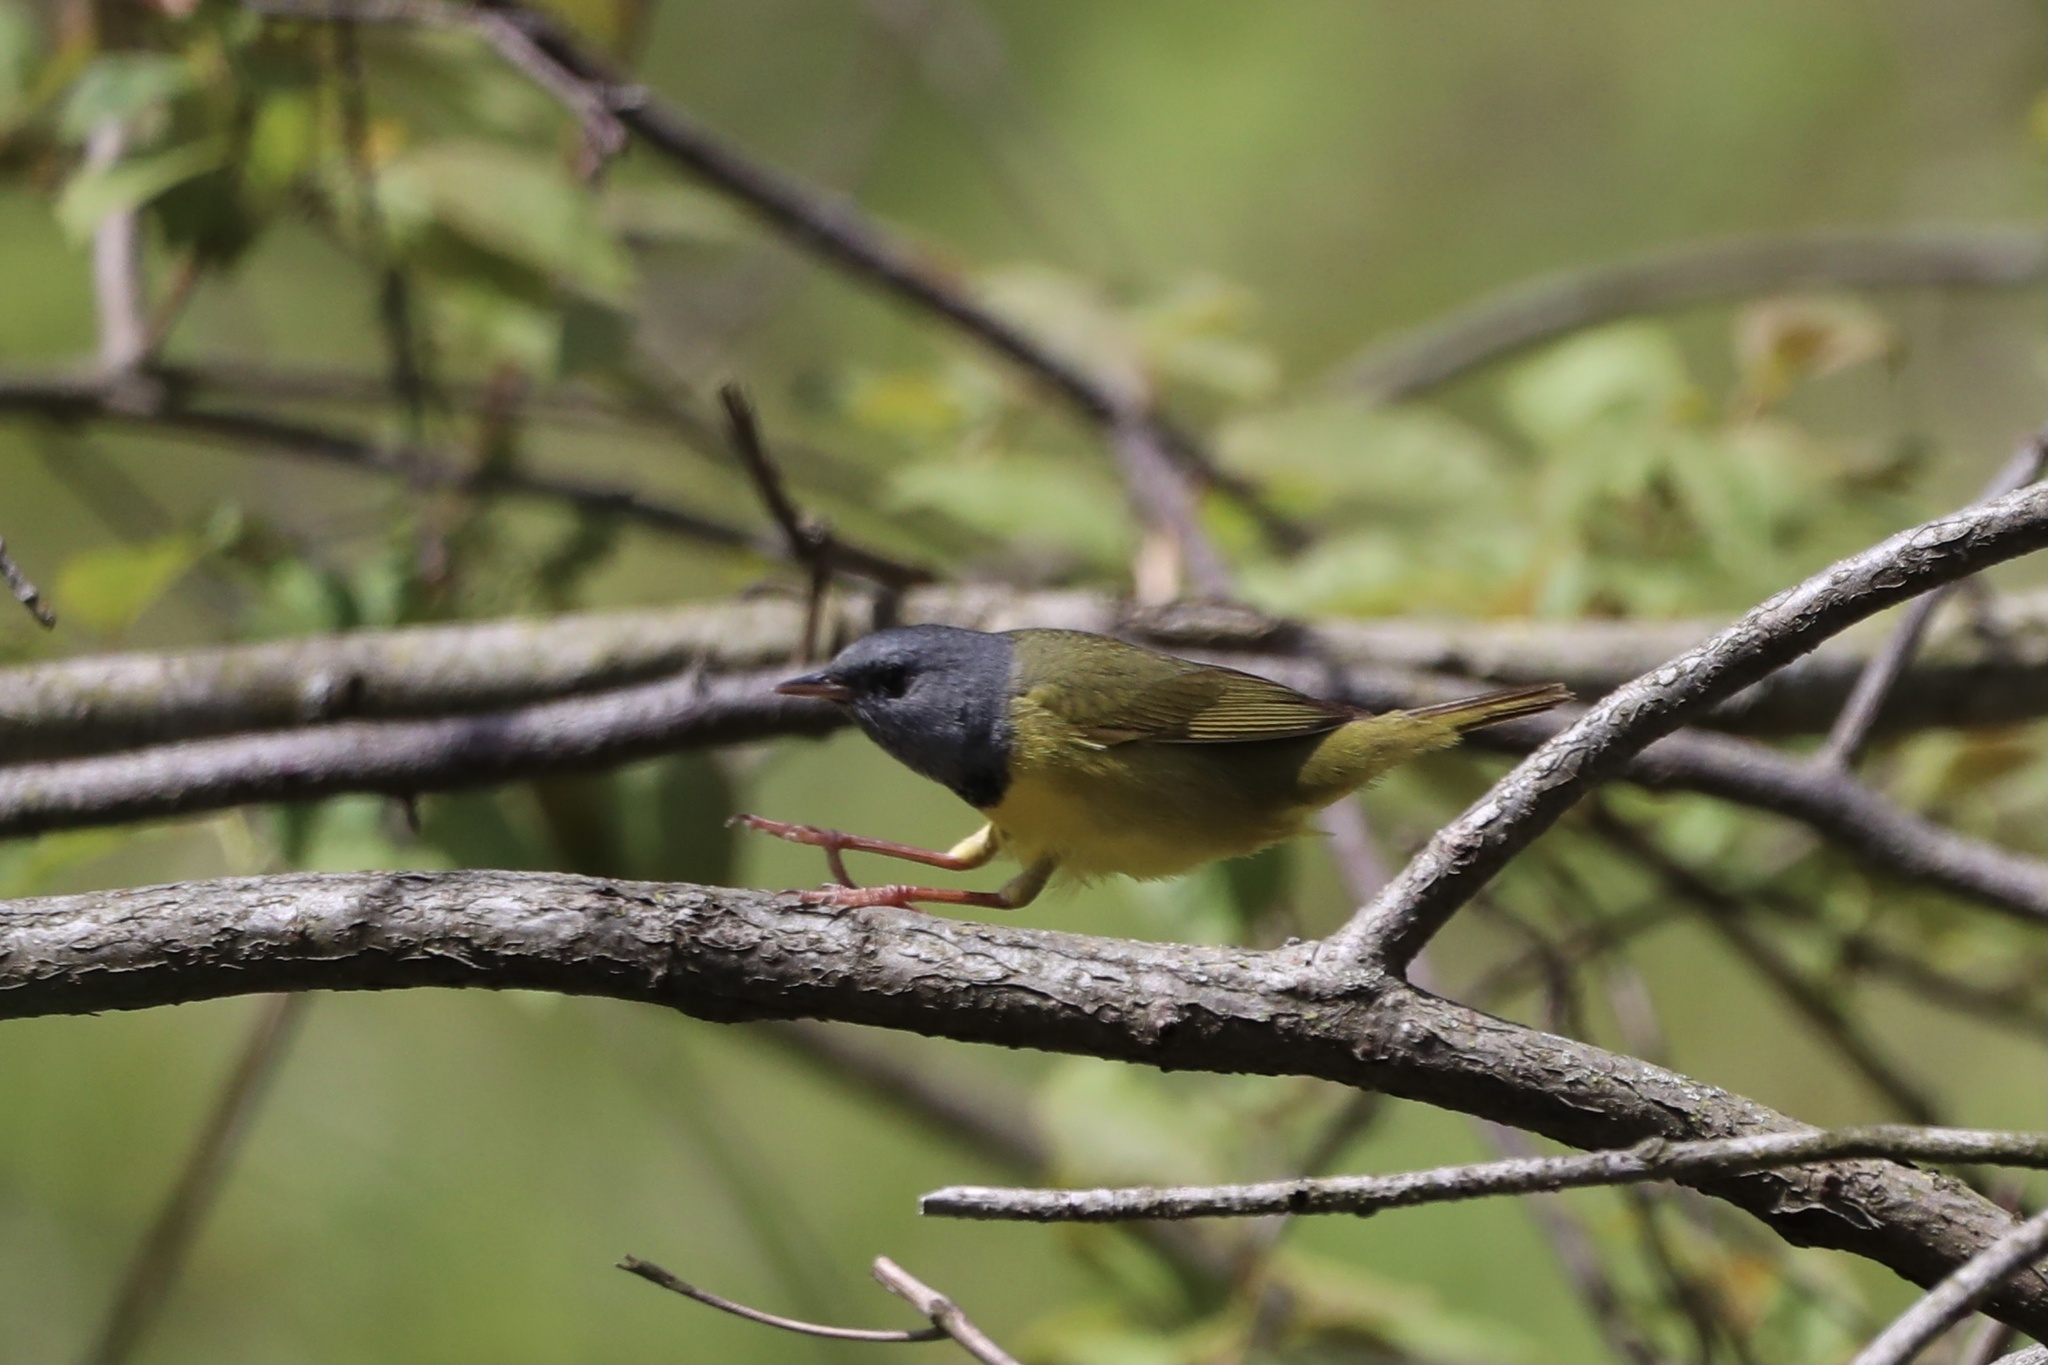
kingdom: Animalia
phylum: Chordata
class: Aves
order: Passeriformes
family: Parulidae
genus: Geothlypis
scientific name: Geothlypis philadelphia
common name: Mourning warbler
